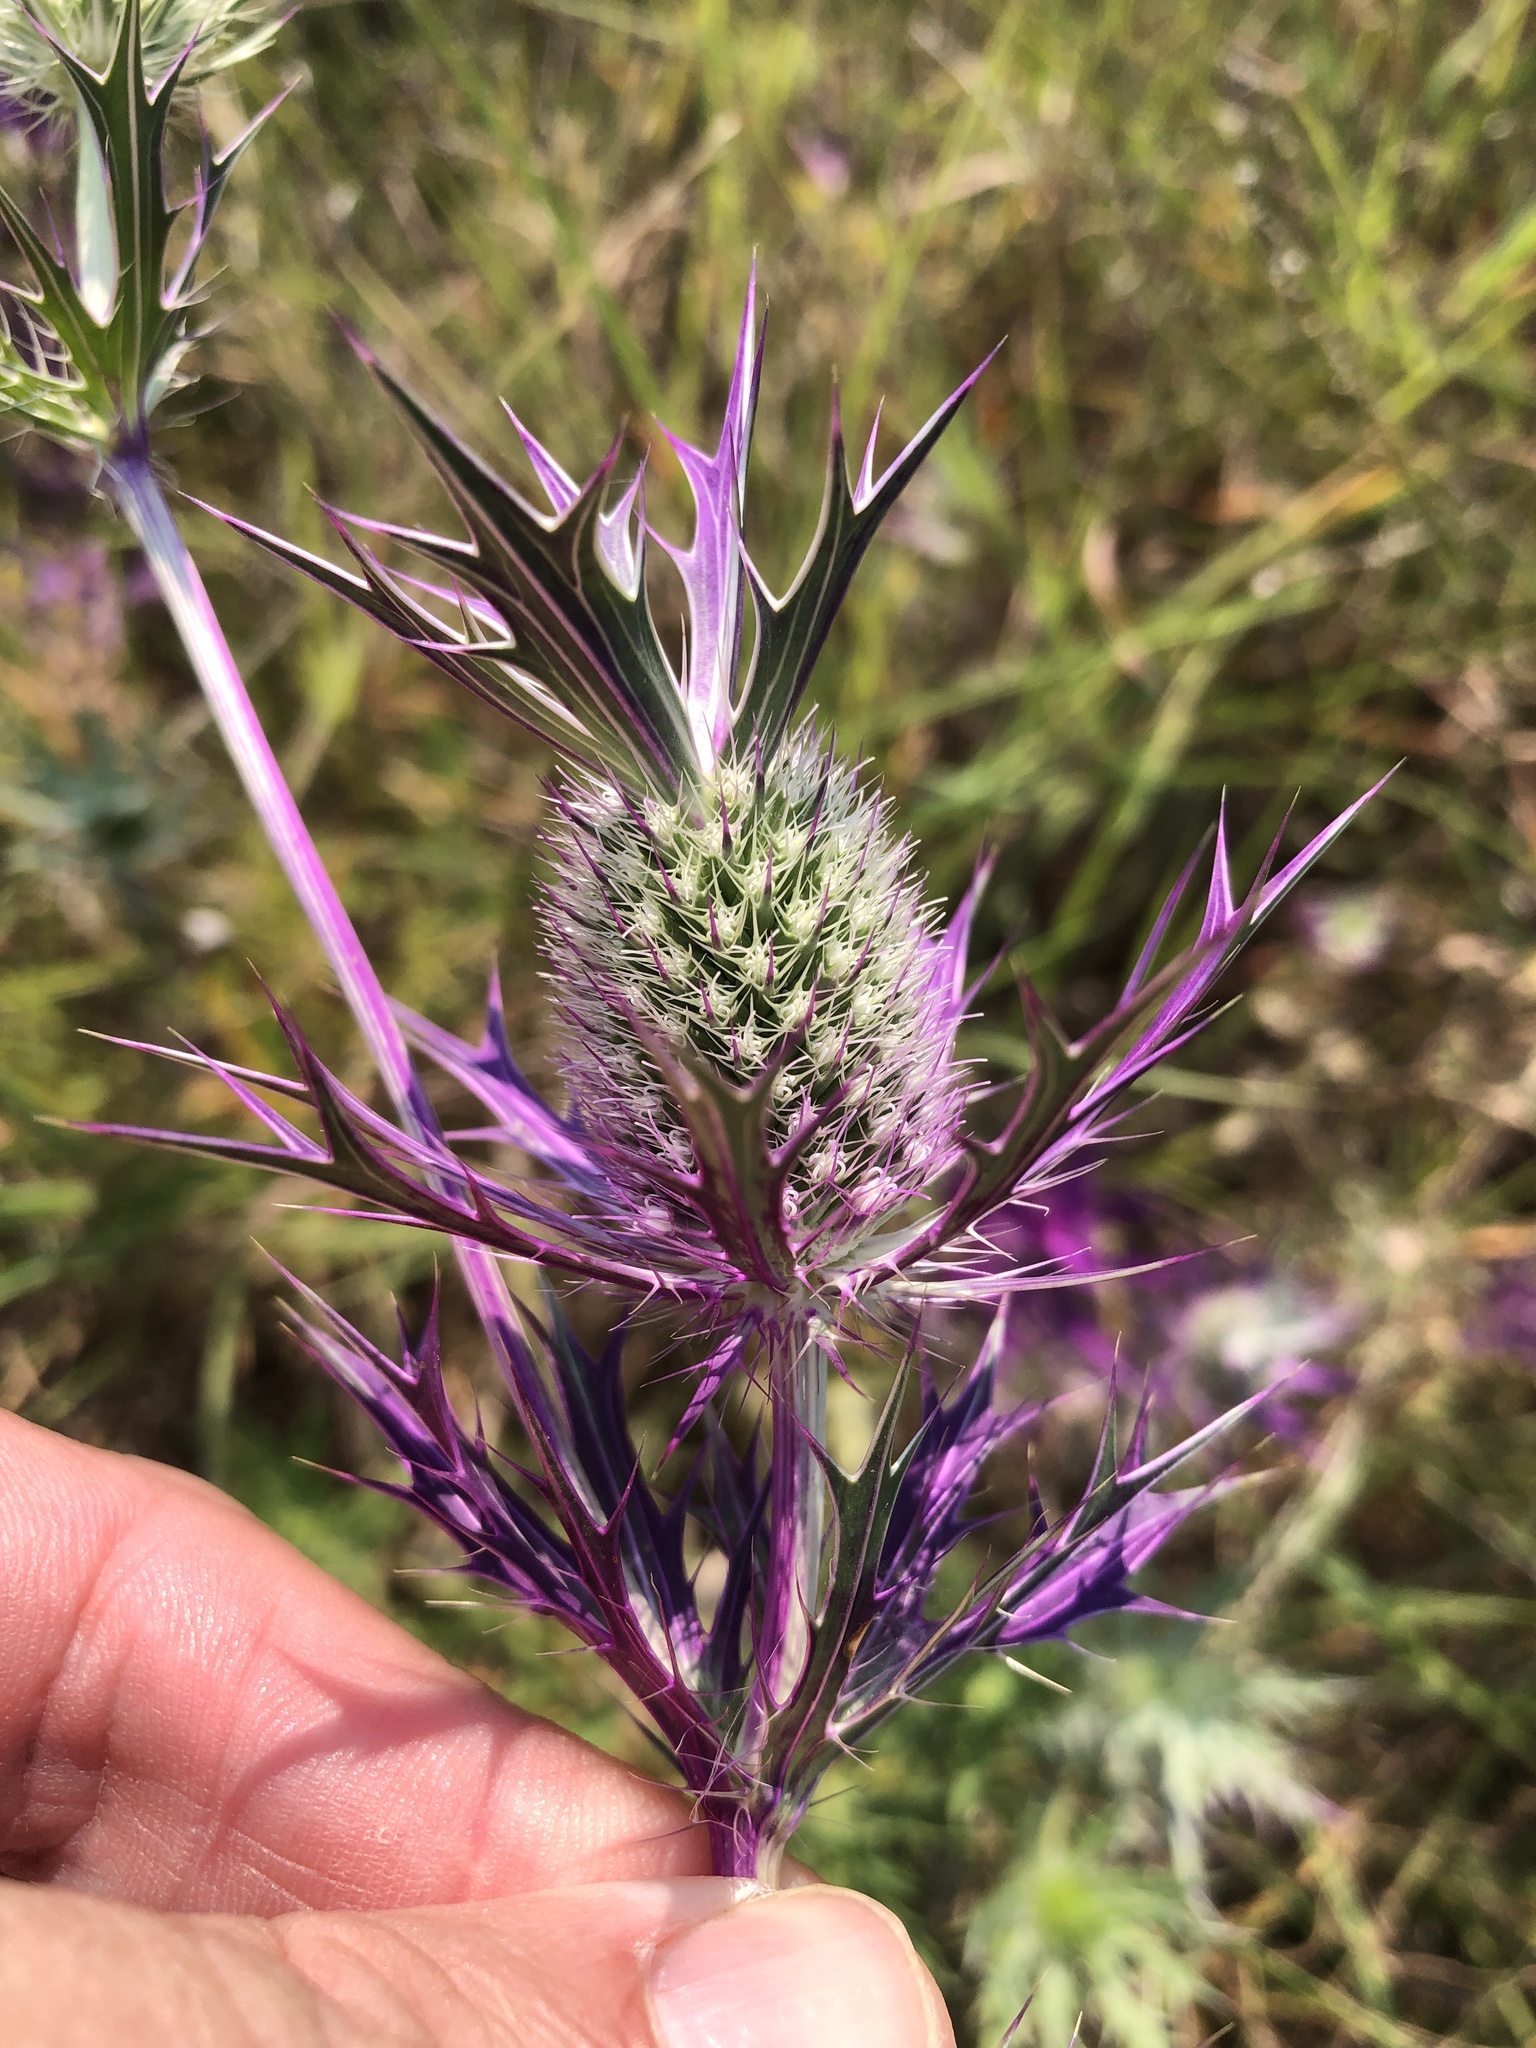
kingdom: Plantae
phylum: Tracheophyta
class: Magnoliopsida
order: Apiales
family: Apiaceae
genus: Eryngium
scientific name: Eryngium leavenworthii
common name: Leavenworth's eryngo
